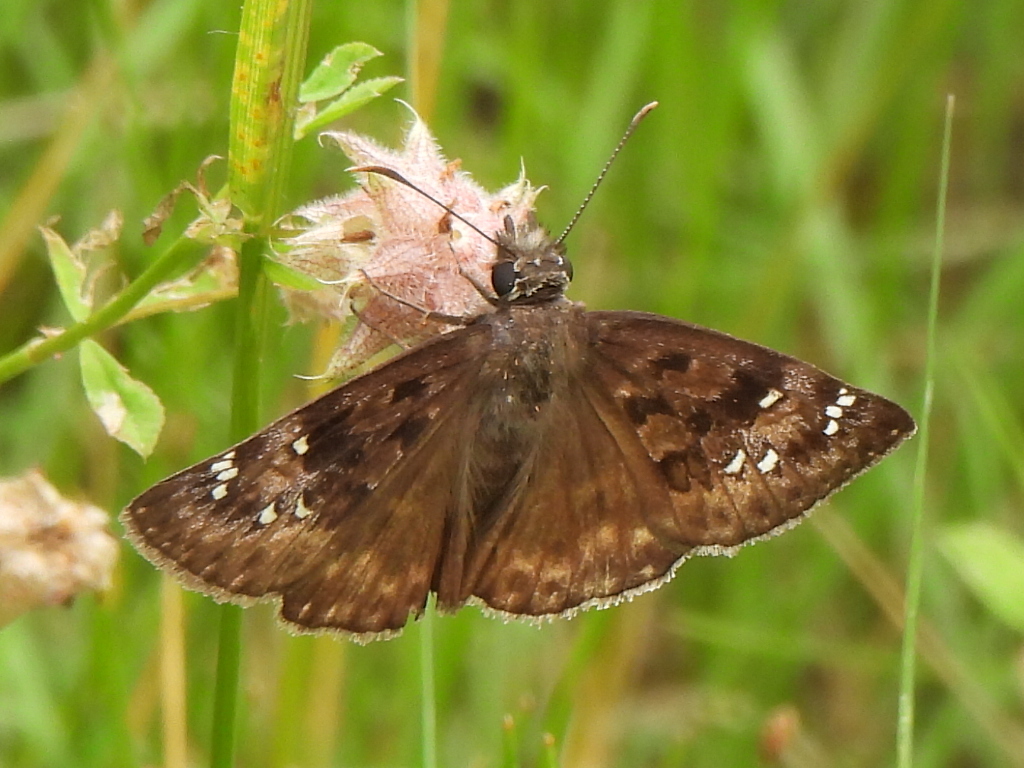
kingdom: Animalia
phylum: Arthropoda
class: Insecta
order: Lepidoptera
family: Hesperiidae
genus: Erynnis
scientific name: Erynnis horatius
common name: Horace's duskywing
